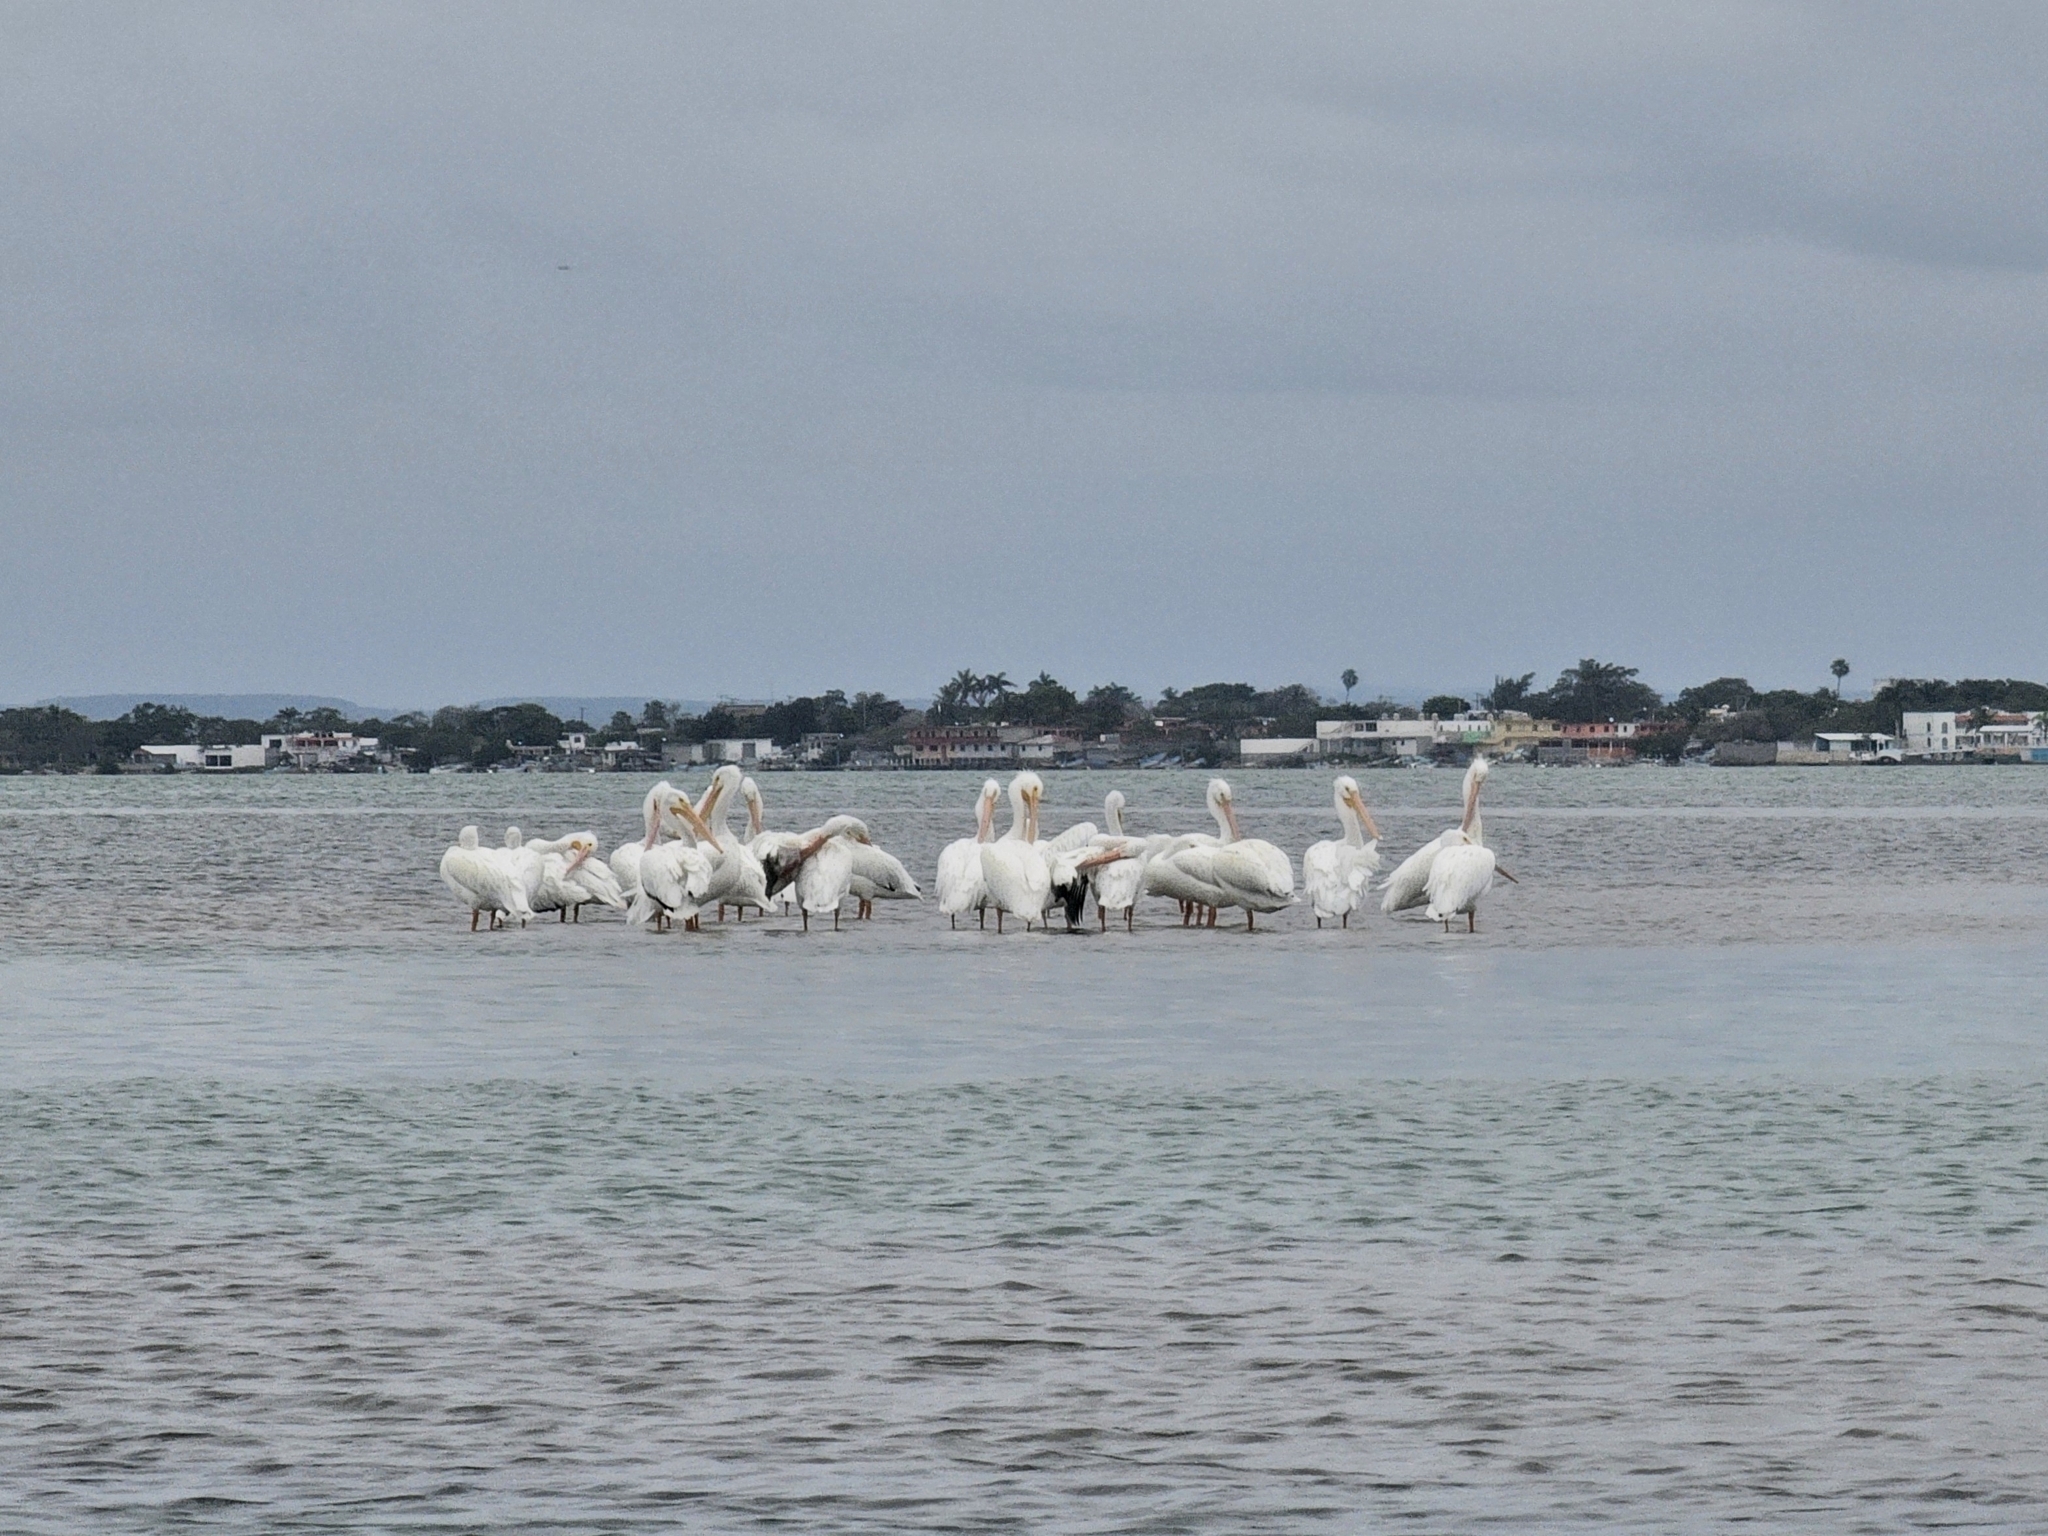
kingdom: Animalia
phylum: Chordata
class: Aves
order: Pelecaniformes
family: Pelecanidae
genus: Pelecanus
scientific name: Pelecanus erythrorhynchos
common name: American white pelican
